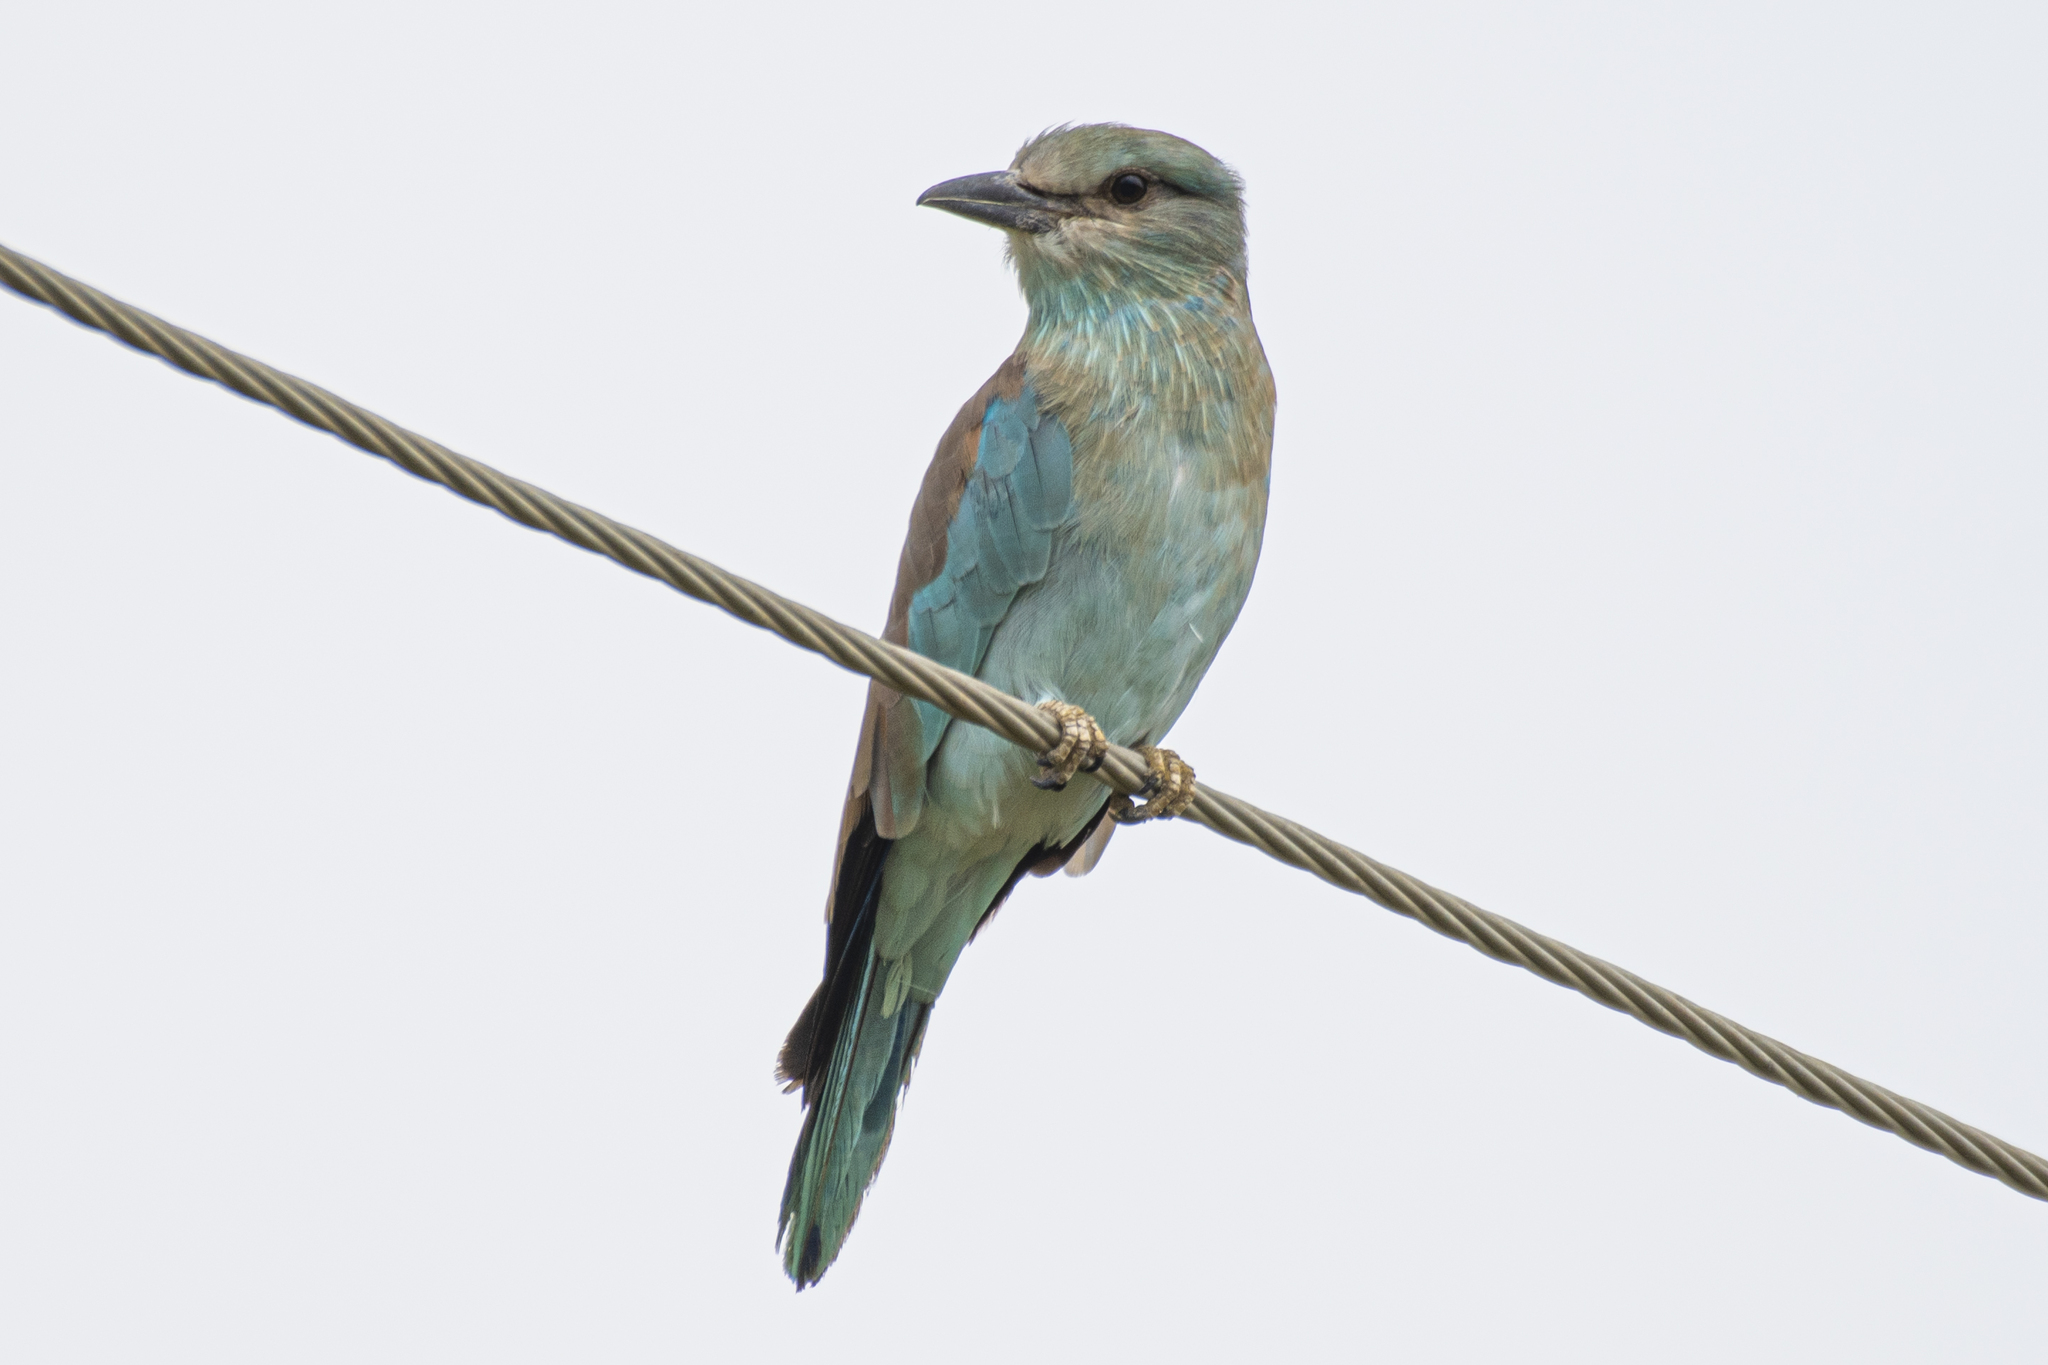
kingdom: Animalia
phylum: Chordata
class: Aves
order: Coraciiformes
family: Coraciidae
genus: Coracias
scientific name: Coracias garrulus
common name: European roller
